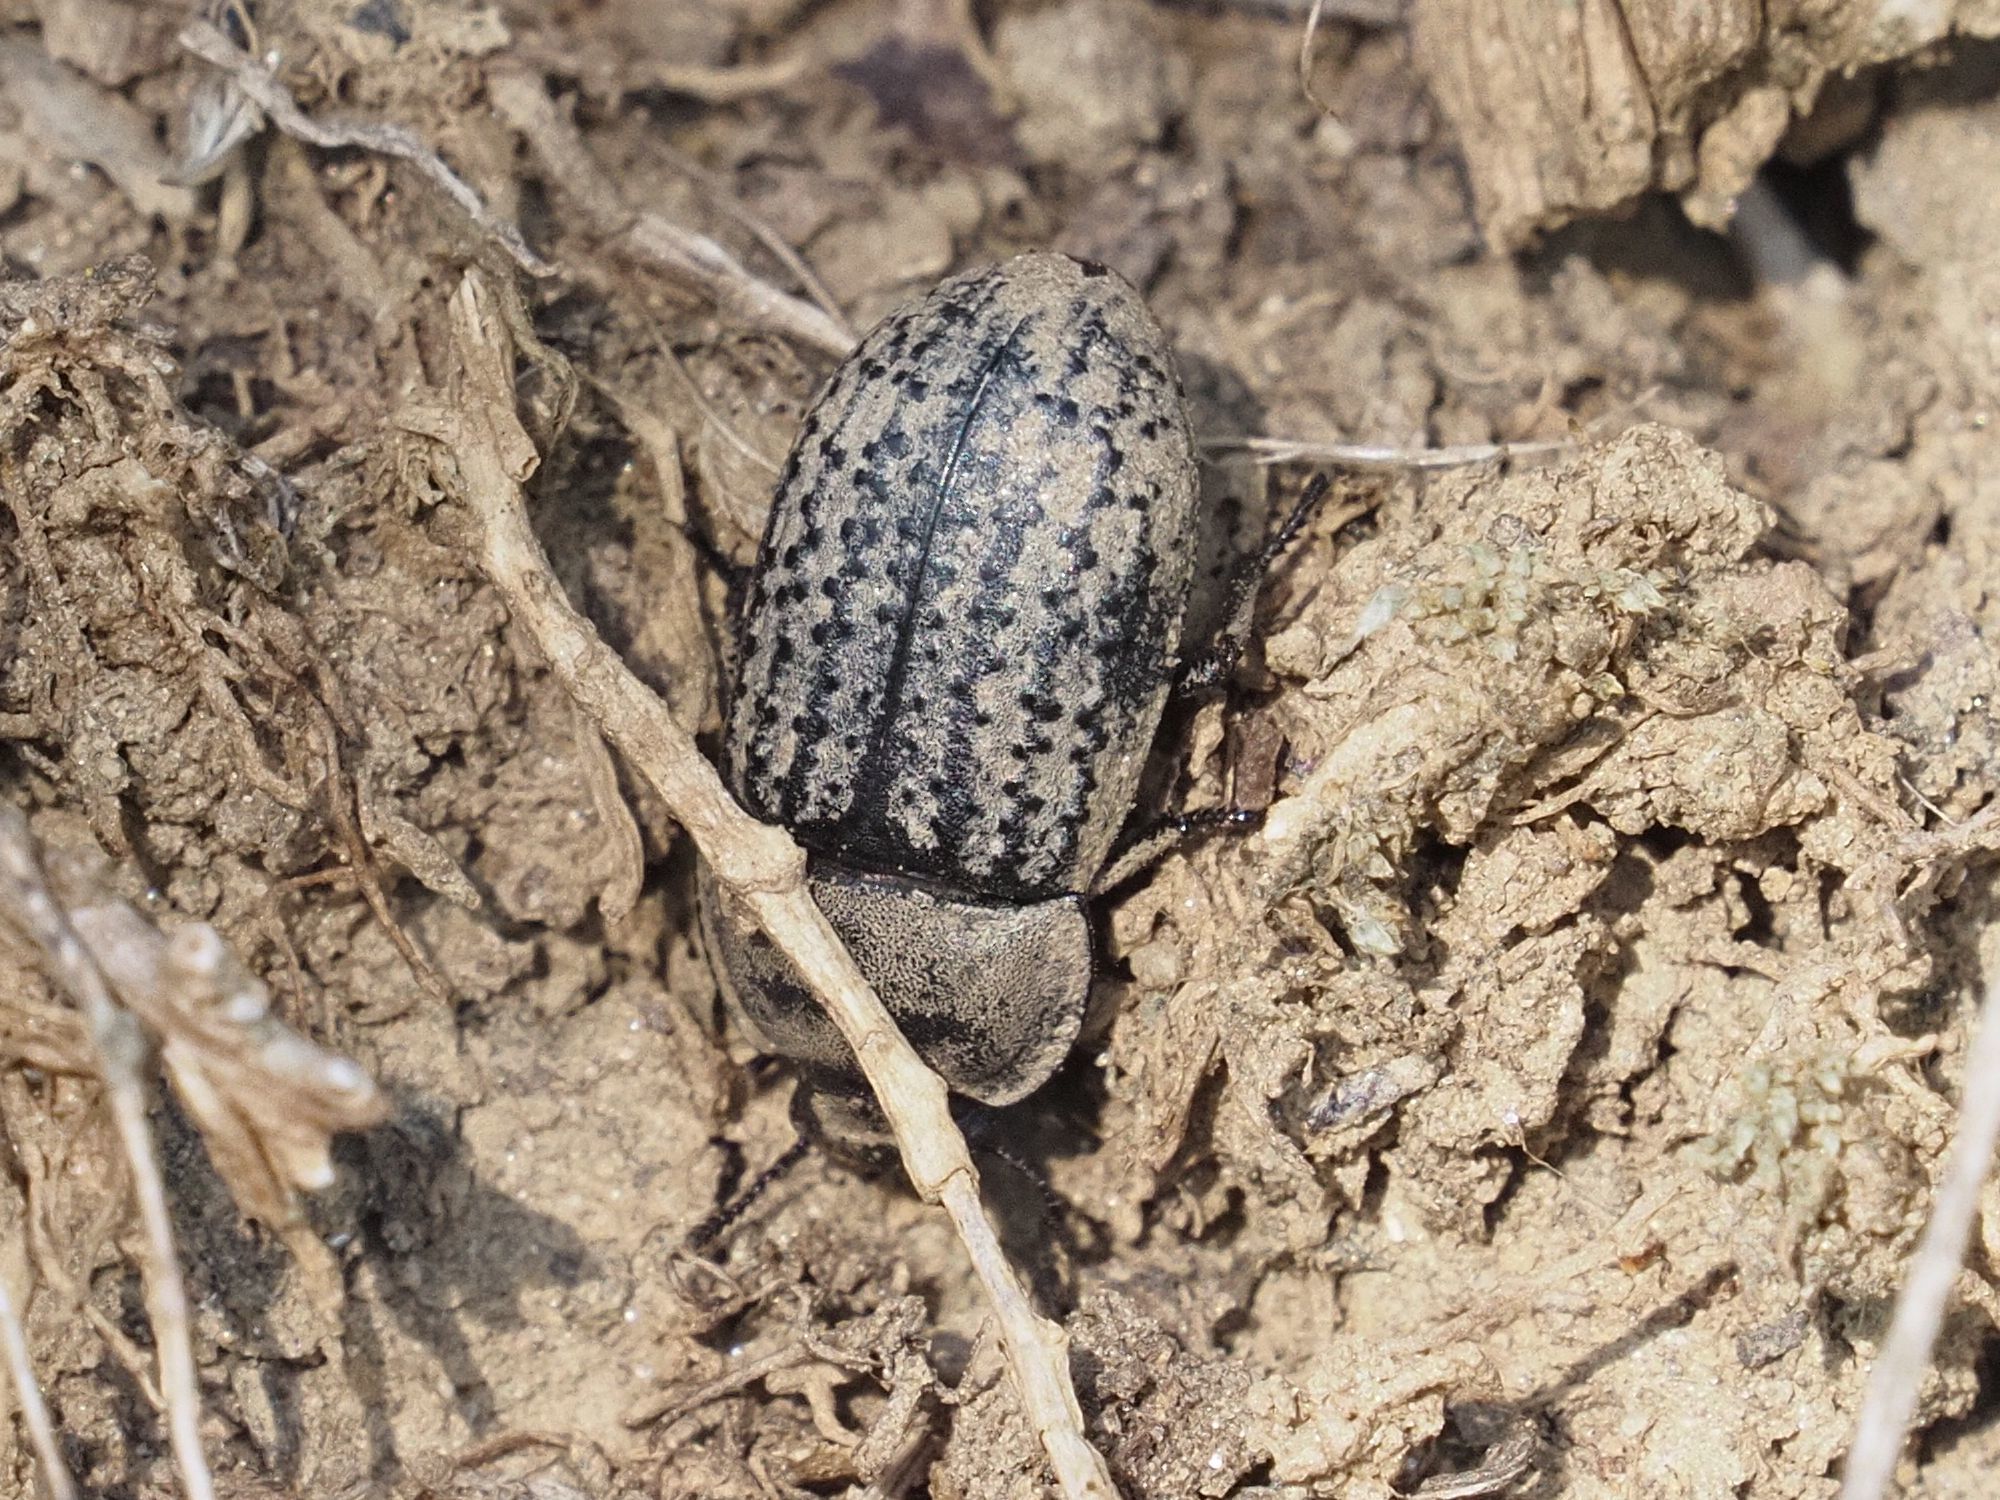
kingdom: Animalia
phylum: Arthropoda
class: Insecta
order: Coleoptera
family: Tenebrionidae
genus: Opatrum
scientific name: Opatrum sabulosum
